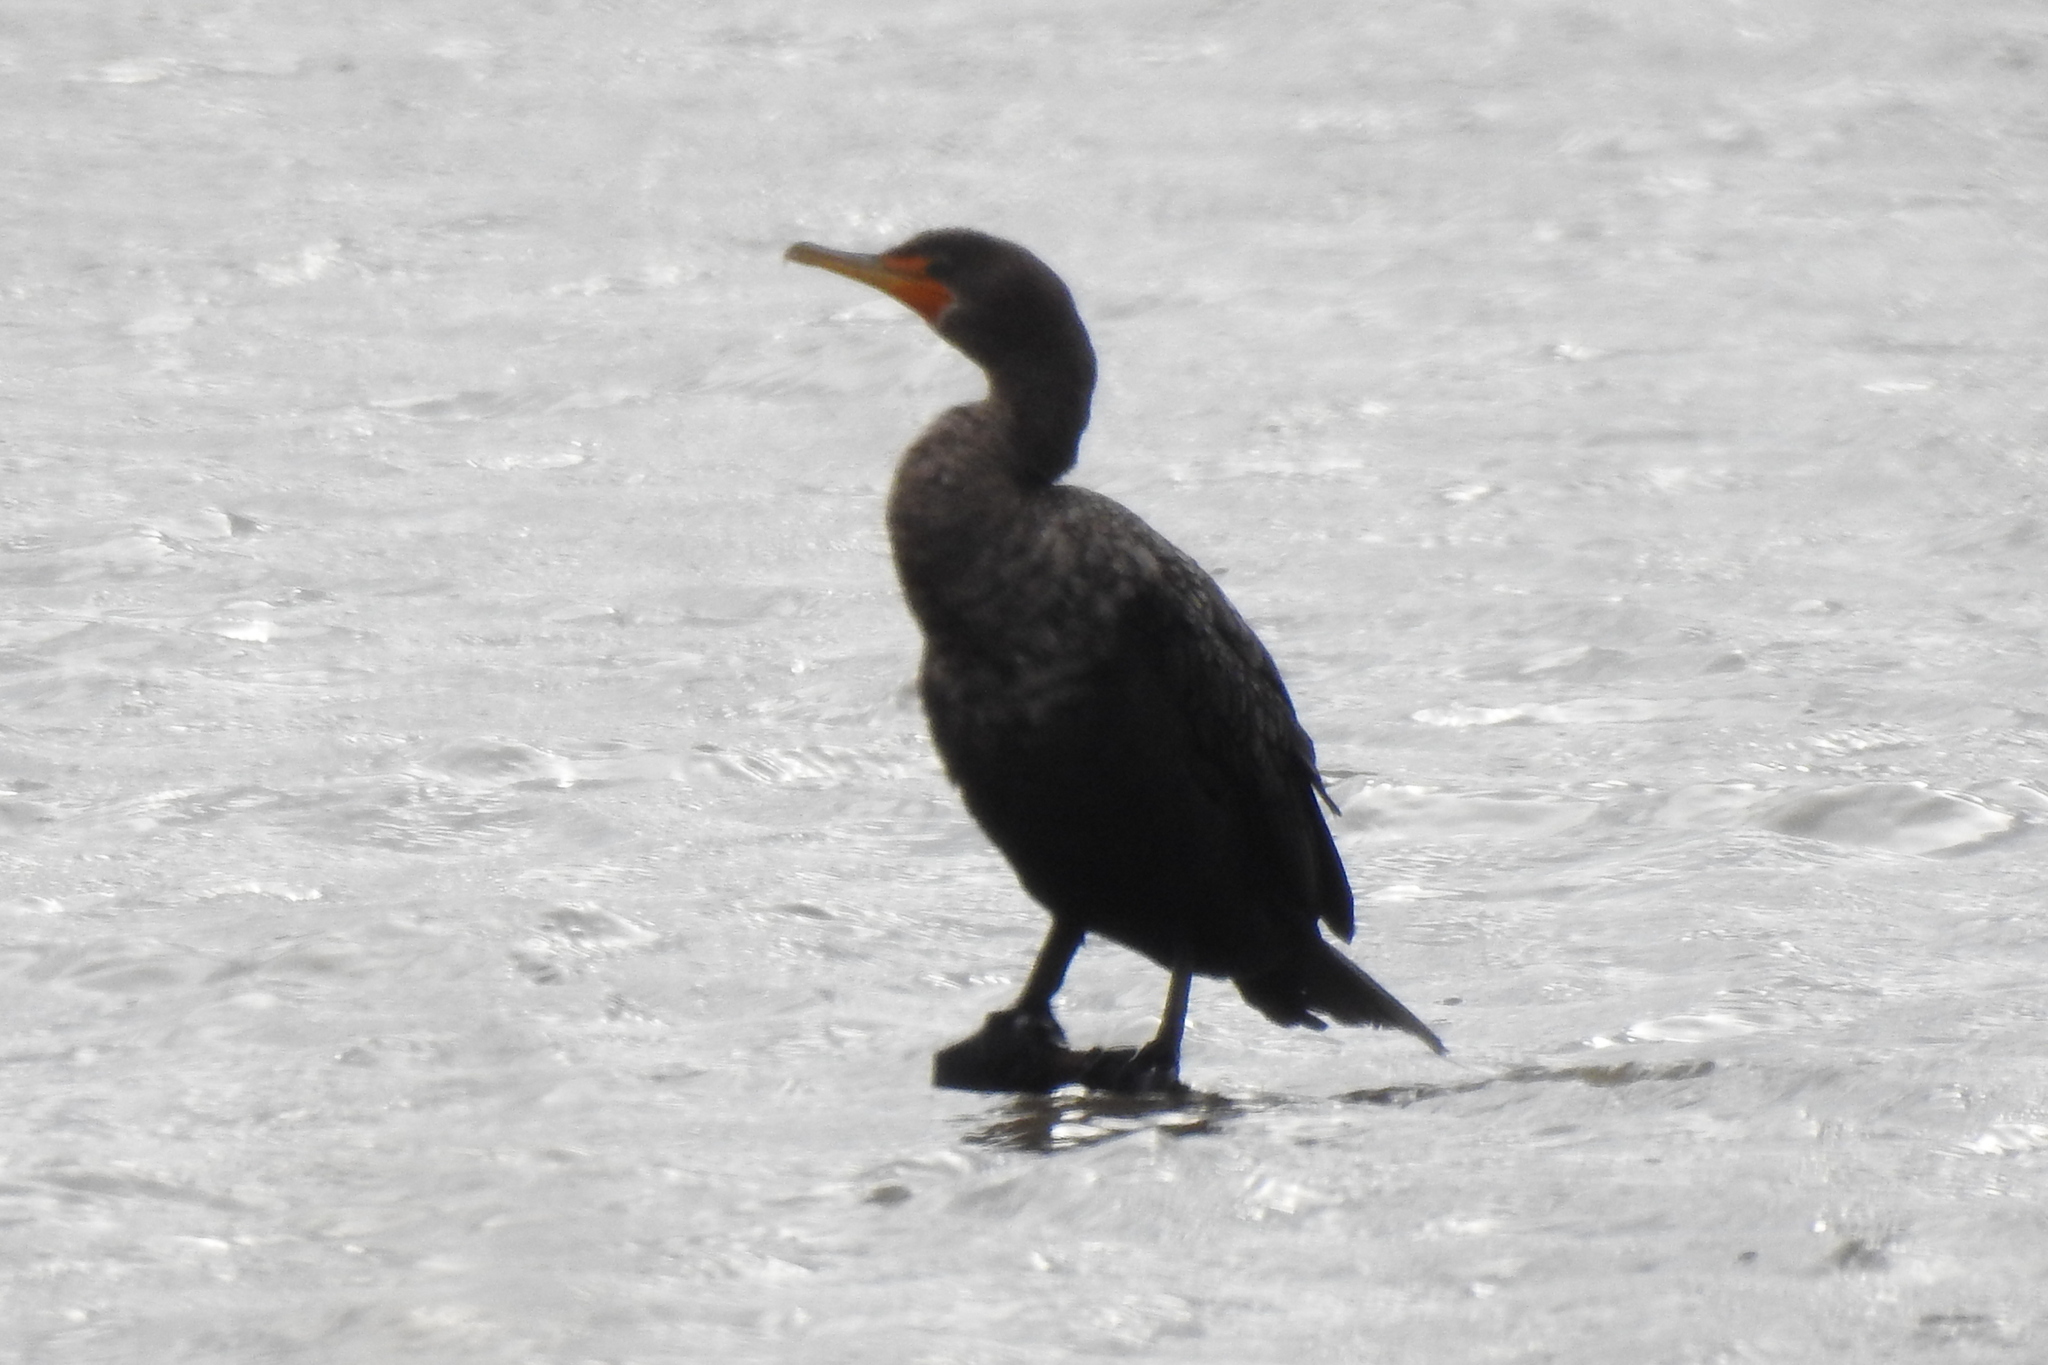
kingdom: Animalia
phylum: Chordata
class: Aves
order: Suliformes
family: Phalacrocoracidae
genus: Phalacrocorax
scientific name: Phalacrocorax auritus
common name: Double-crested cormorant
